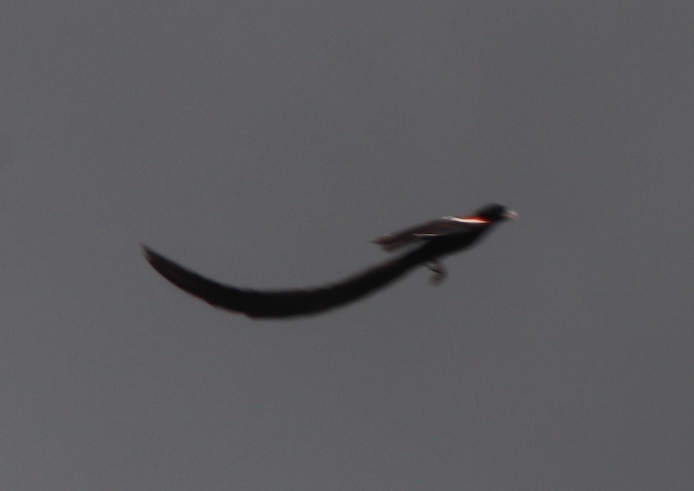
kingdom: Animalia
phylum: Chordata
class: Aves
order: Passeriformes
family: Ploceidae
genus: Euplectes
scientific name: Euplectes progne
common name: Long-tailed widowbird
